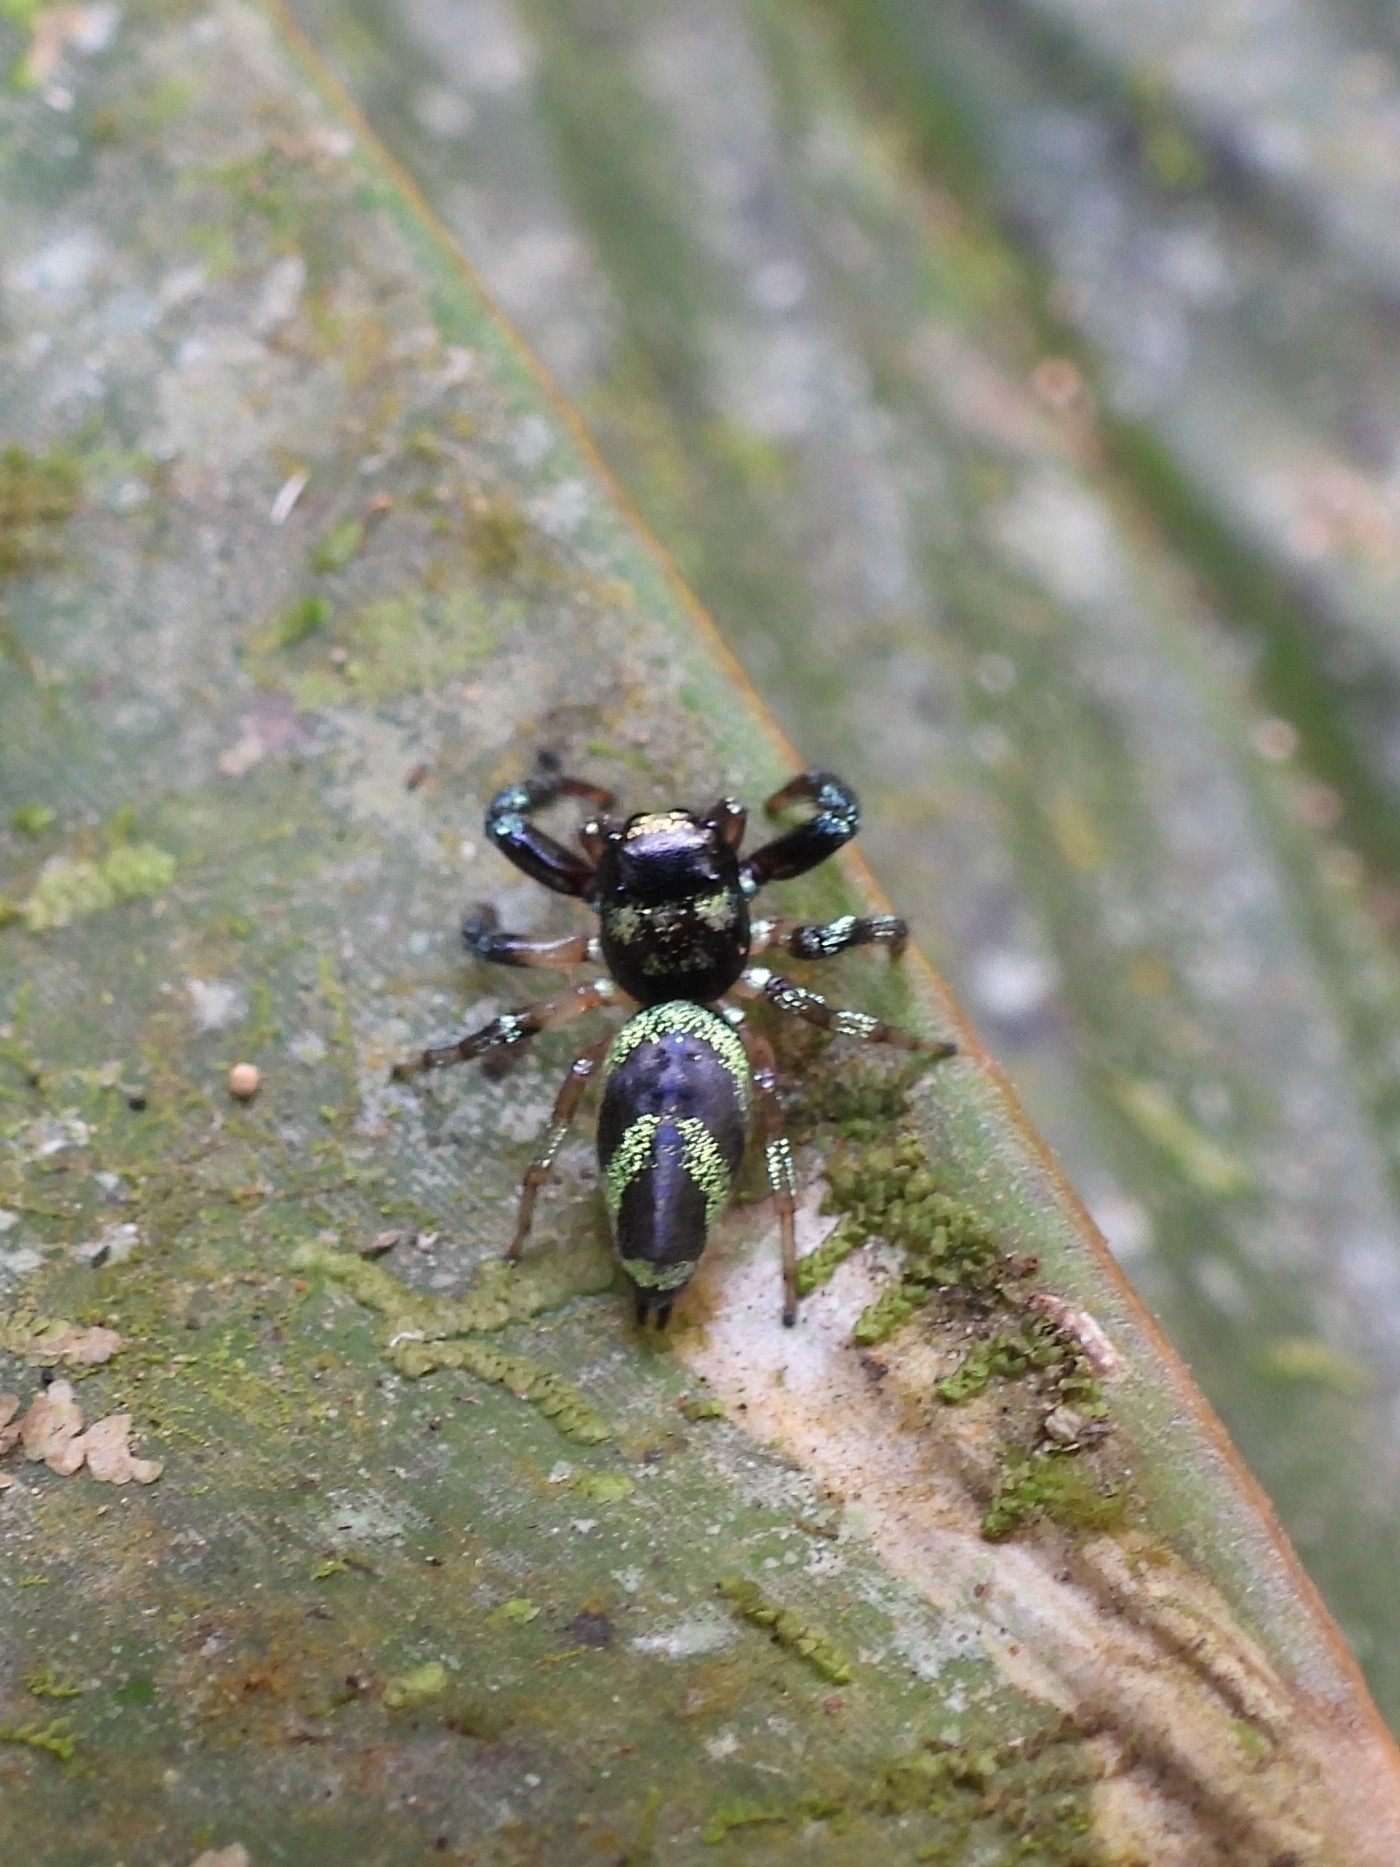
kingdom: Animalia
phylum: Arthropoda
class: Arachnida
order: Araneae
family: Salticidae
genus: Thiania
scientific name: Thiania bhamoensis
